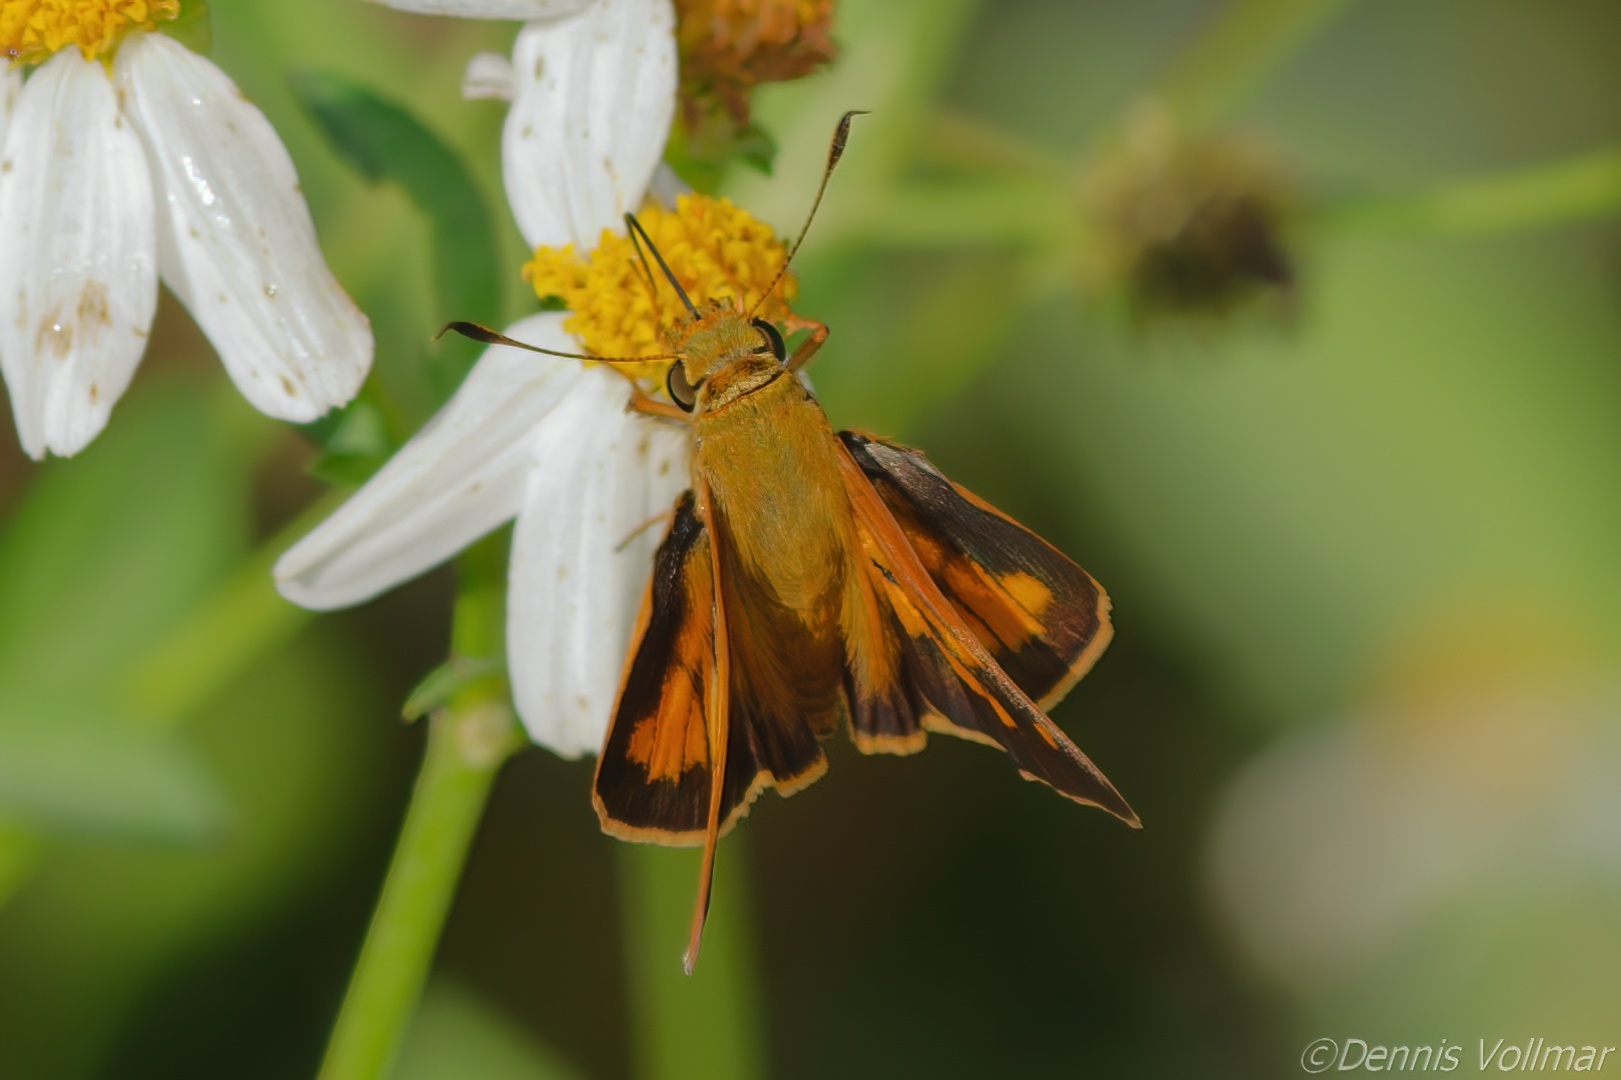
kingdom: Animalia
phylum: Arthropoda
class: Insecta
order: Lepidoptera
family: Hesperiidae
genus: Poanes
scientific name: Poanes yehl
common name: Yehl skipper
